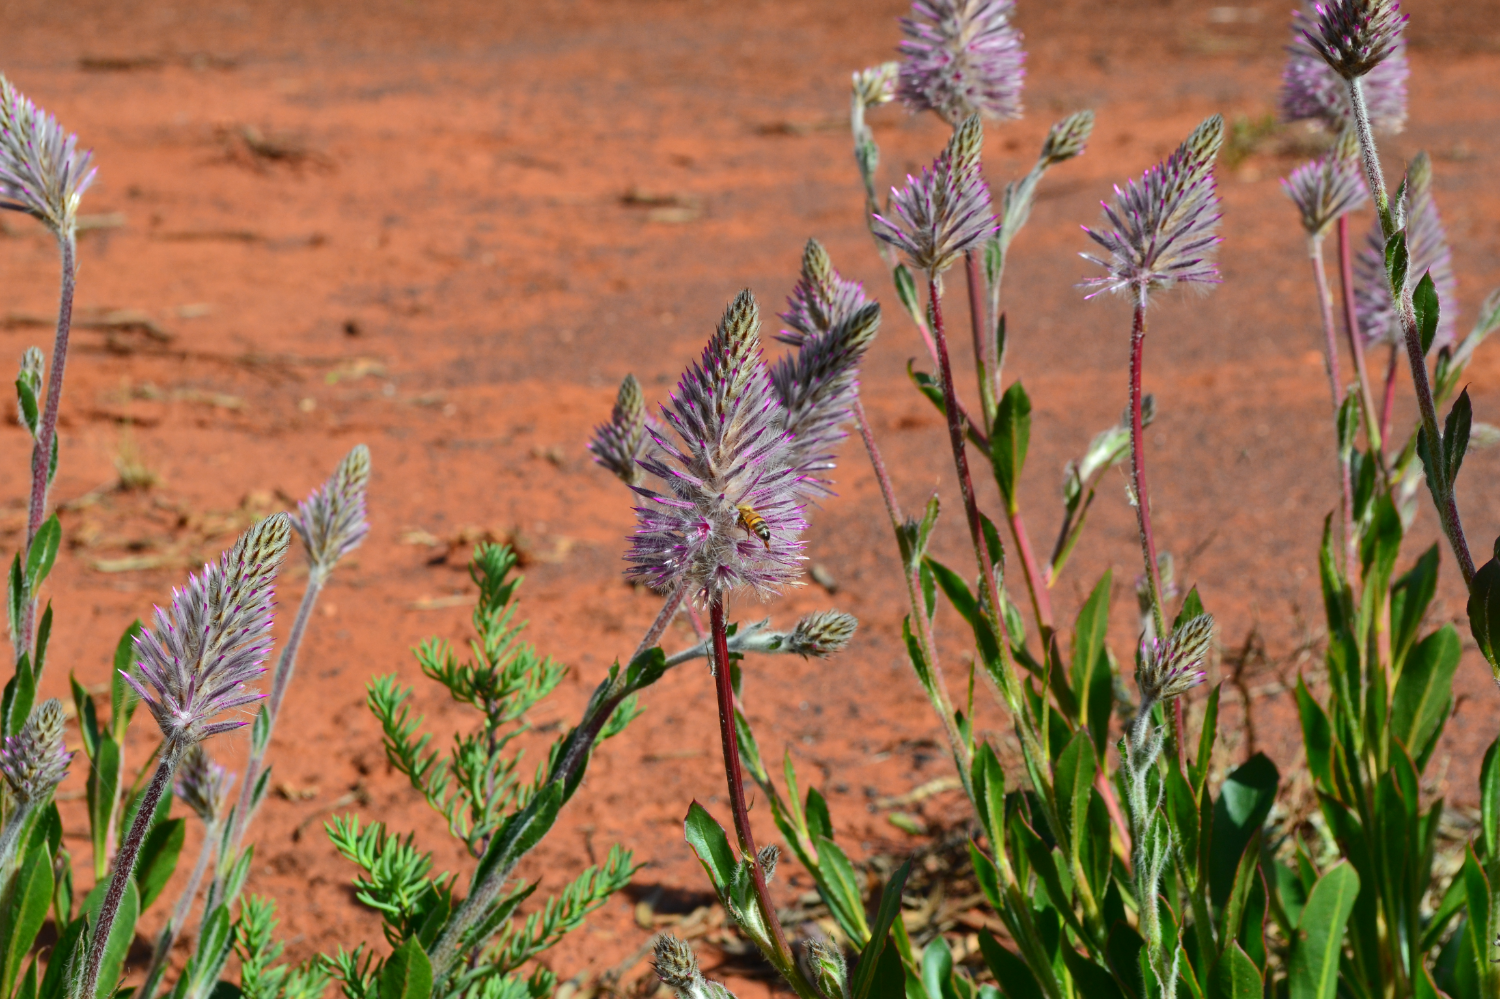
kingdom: Plantae
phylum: Tracheophyta
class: Magnoliopsida
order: Caryophyllales
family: Amaranthaceae
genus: Ptilotus
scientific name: Ptilotus exaltatus
